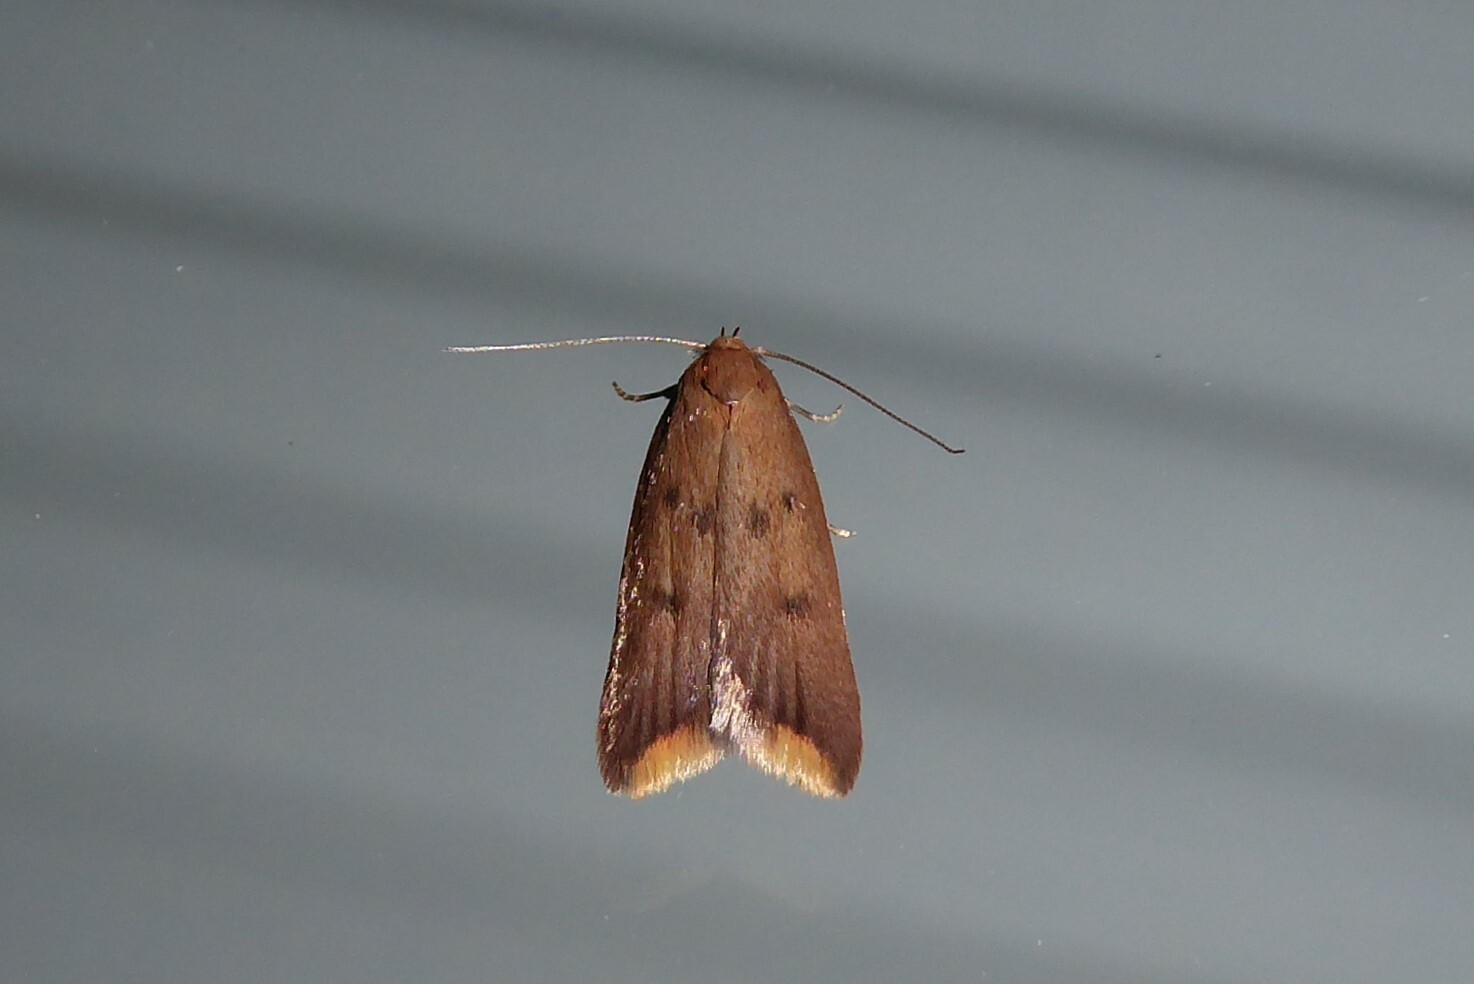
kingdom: Animalia
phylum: Arthropoda
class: Insecta
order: Lepidoptera
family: Oecophoridae
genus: Tachystola
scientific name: Tachystola acroxantha
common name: Ruddy streak
